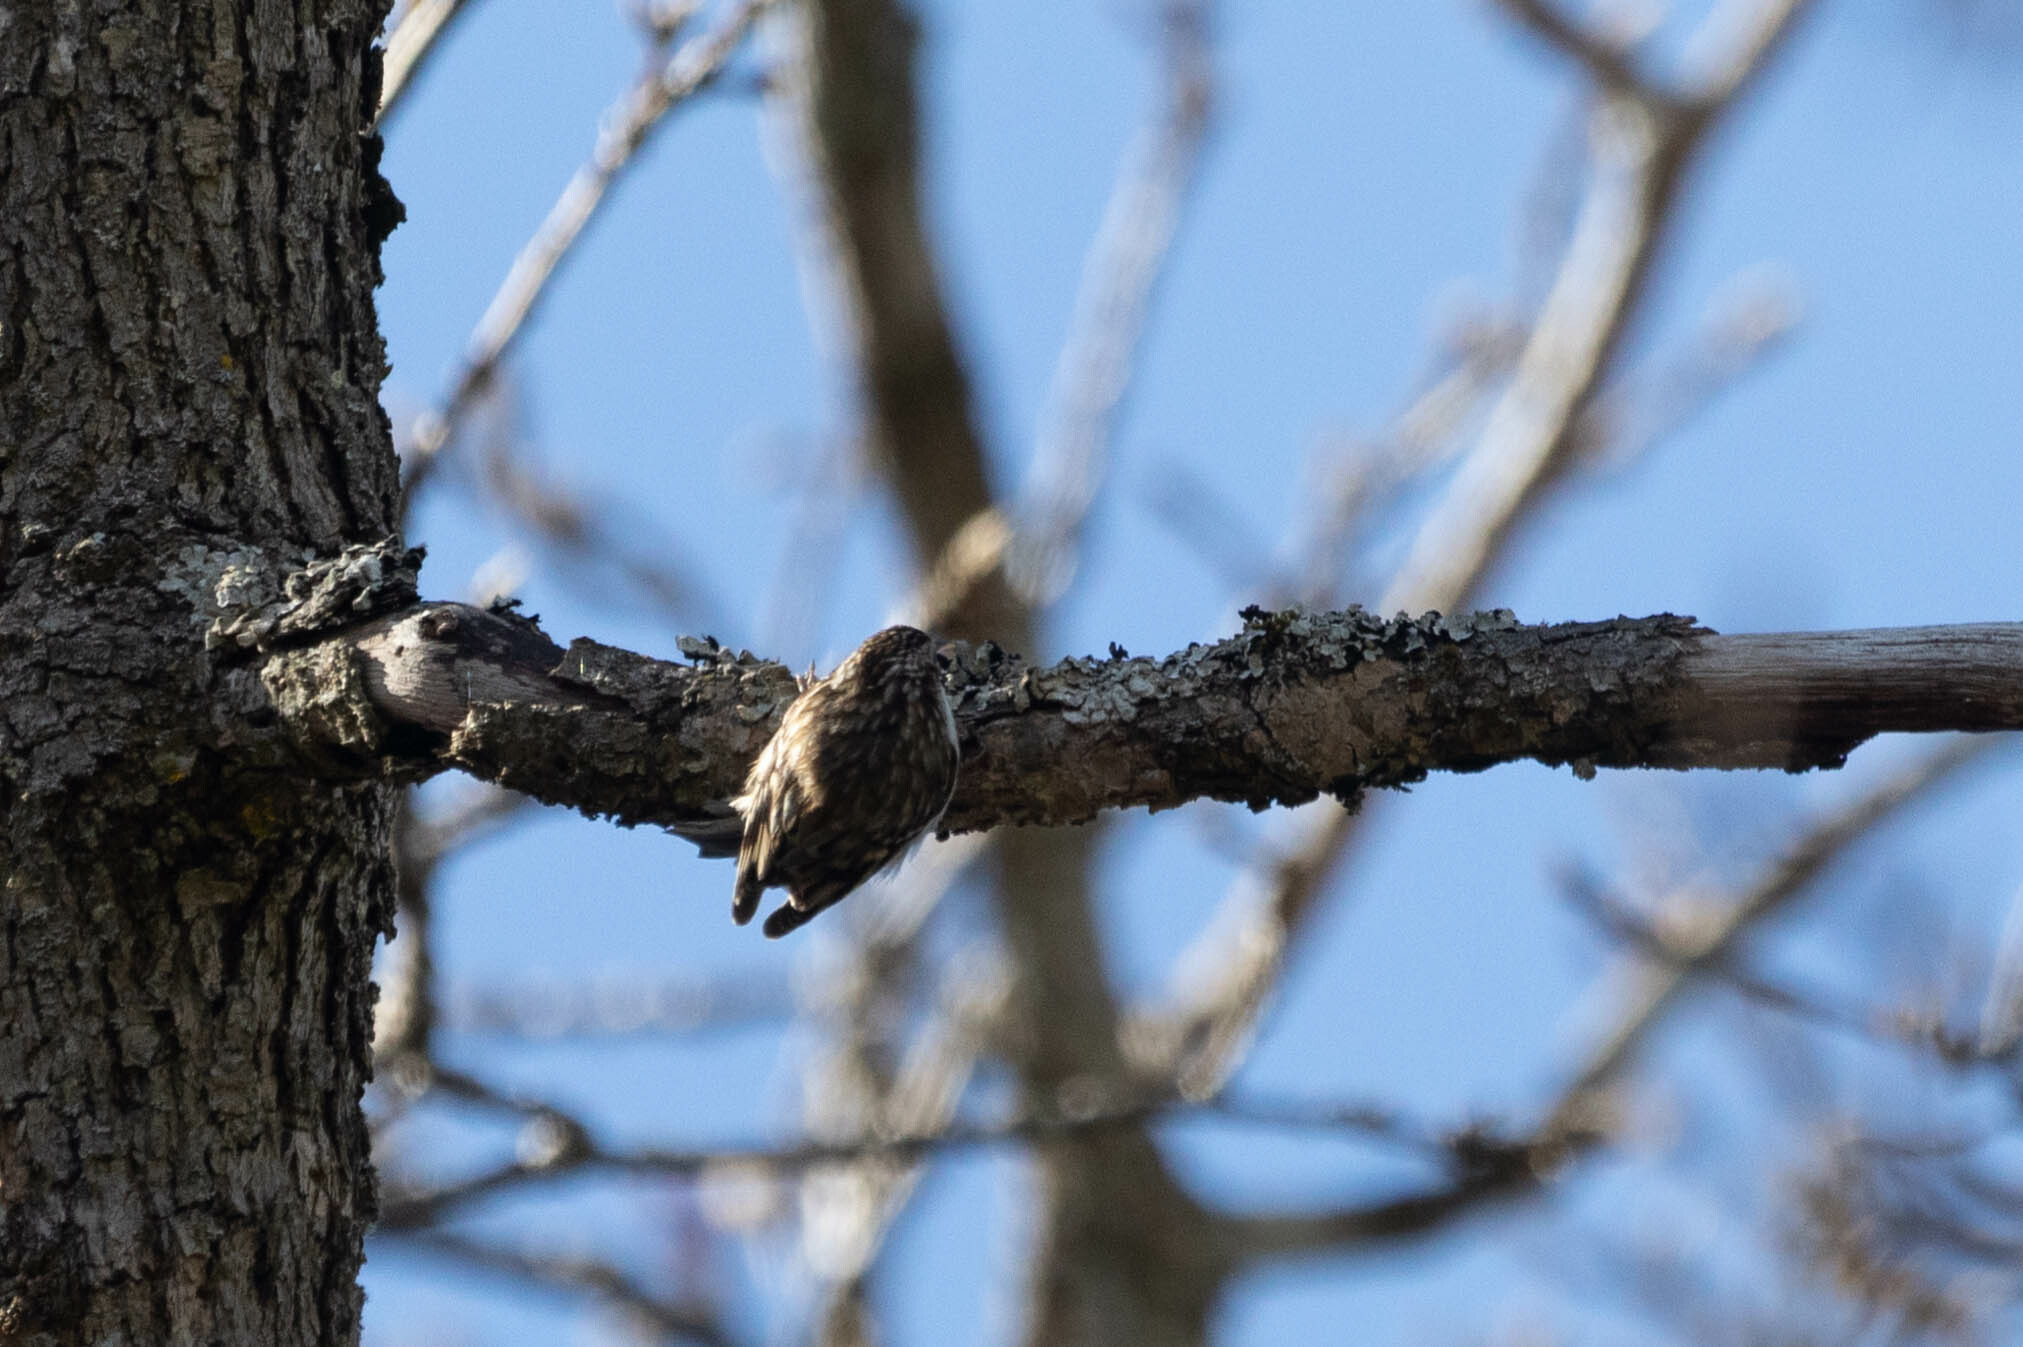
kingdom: Animalia
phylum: Chordata
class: Aves
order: Passeriformes
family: Certhiidae
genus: Certhia
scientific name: Certhia americana
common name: Brown creeper
